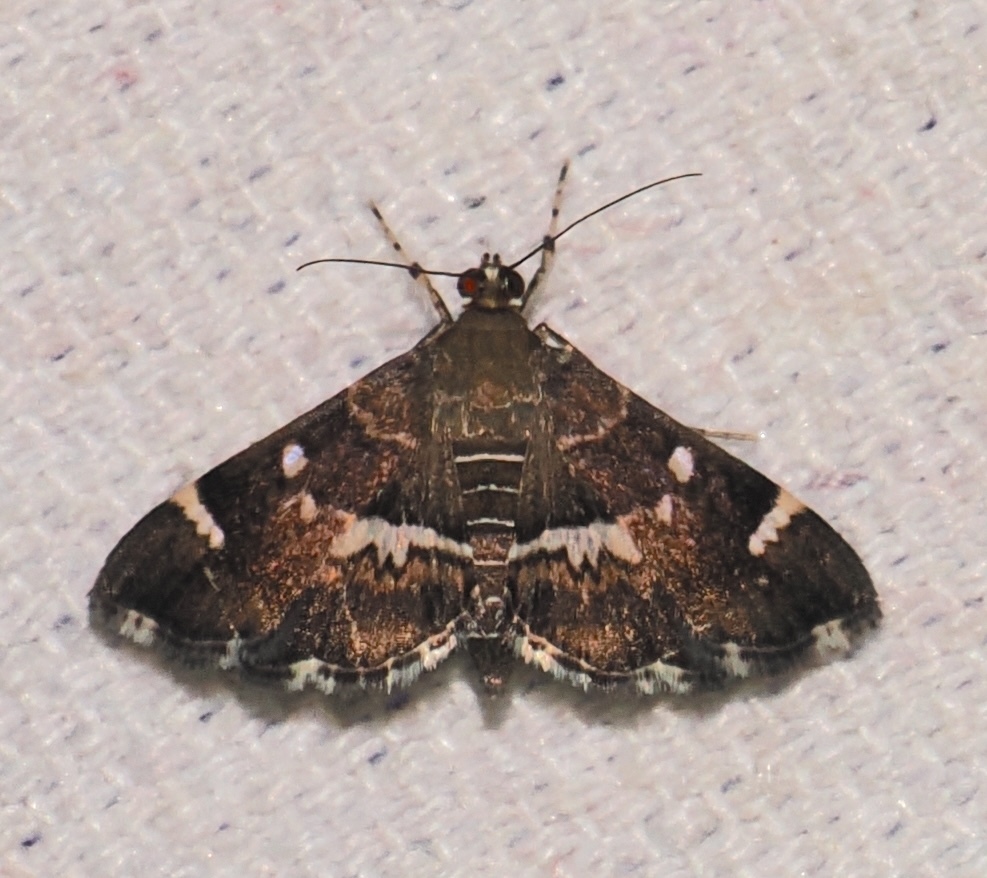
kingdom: Animalia
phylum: Arthropoda
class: Insecta
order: Lepidoptera
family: Crambidae
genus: Hymenia
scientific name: Hymenia perspectalis
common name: Spotted beet webworm
